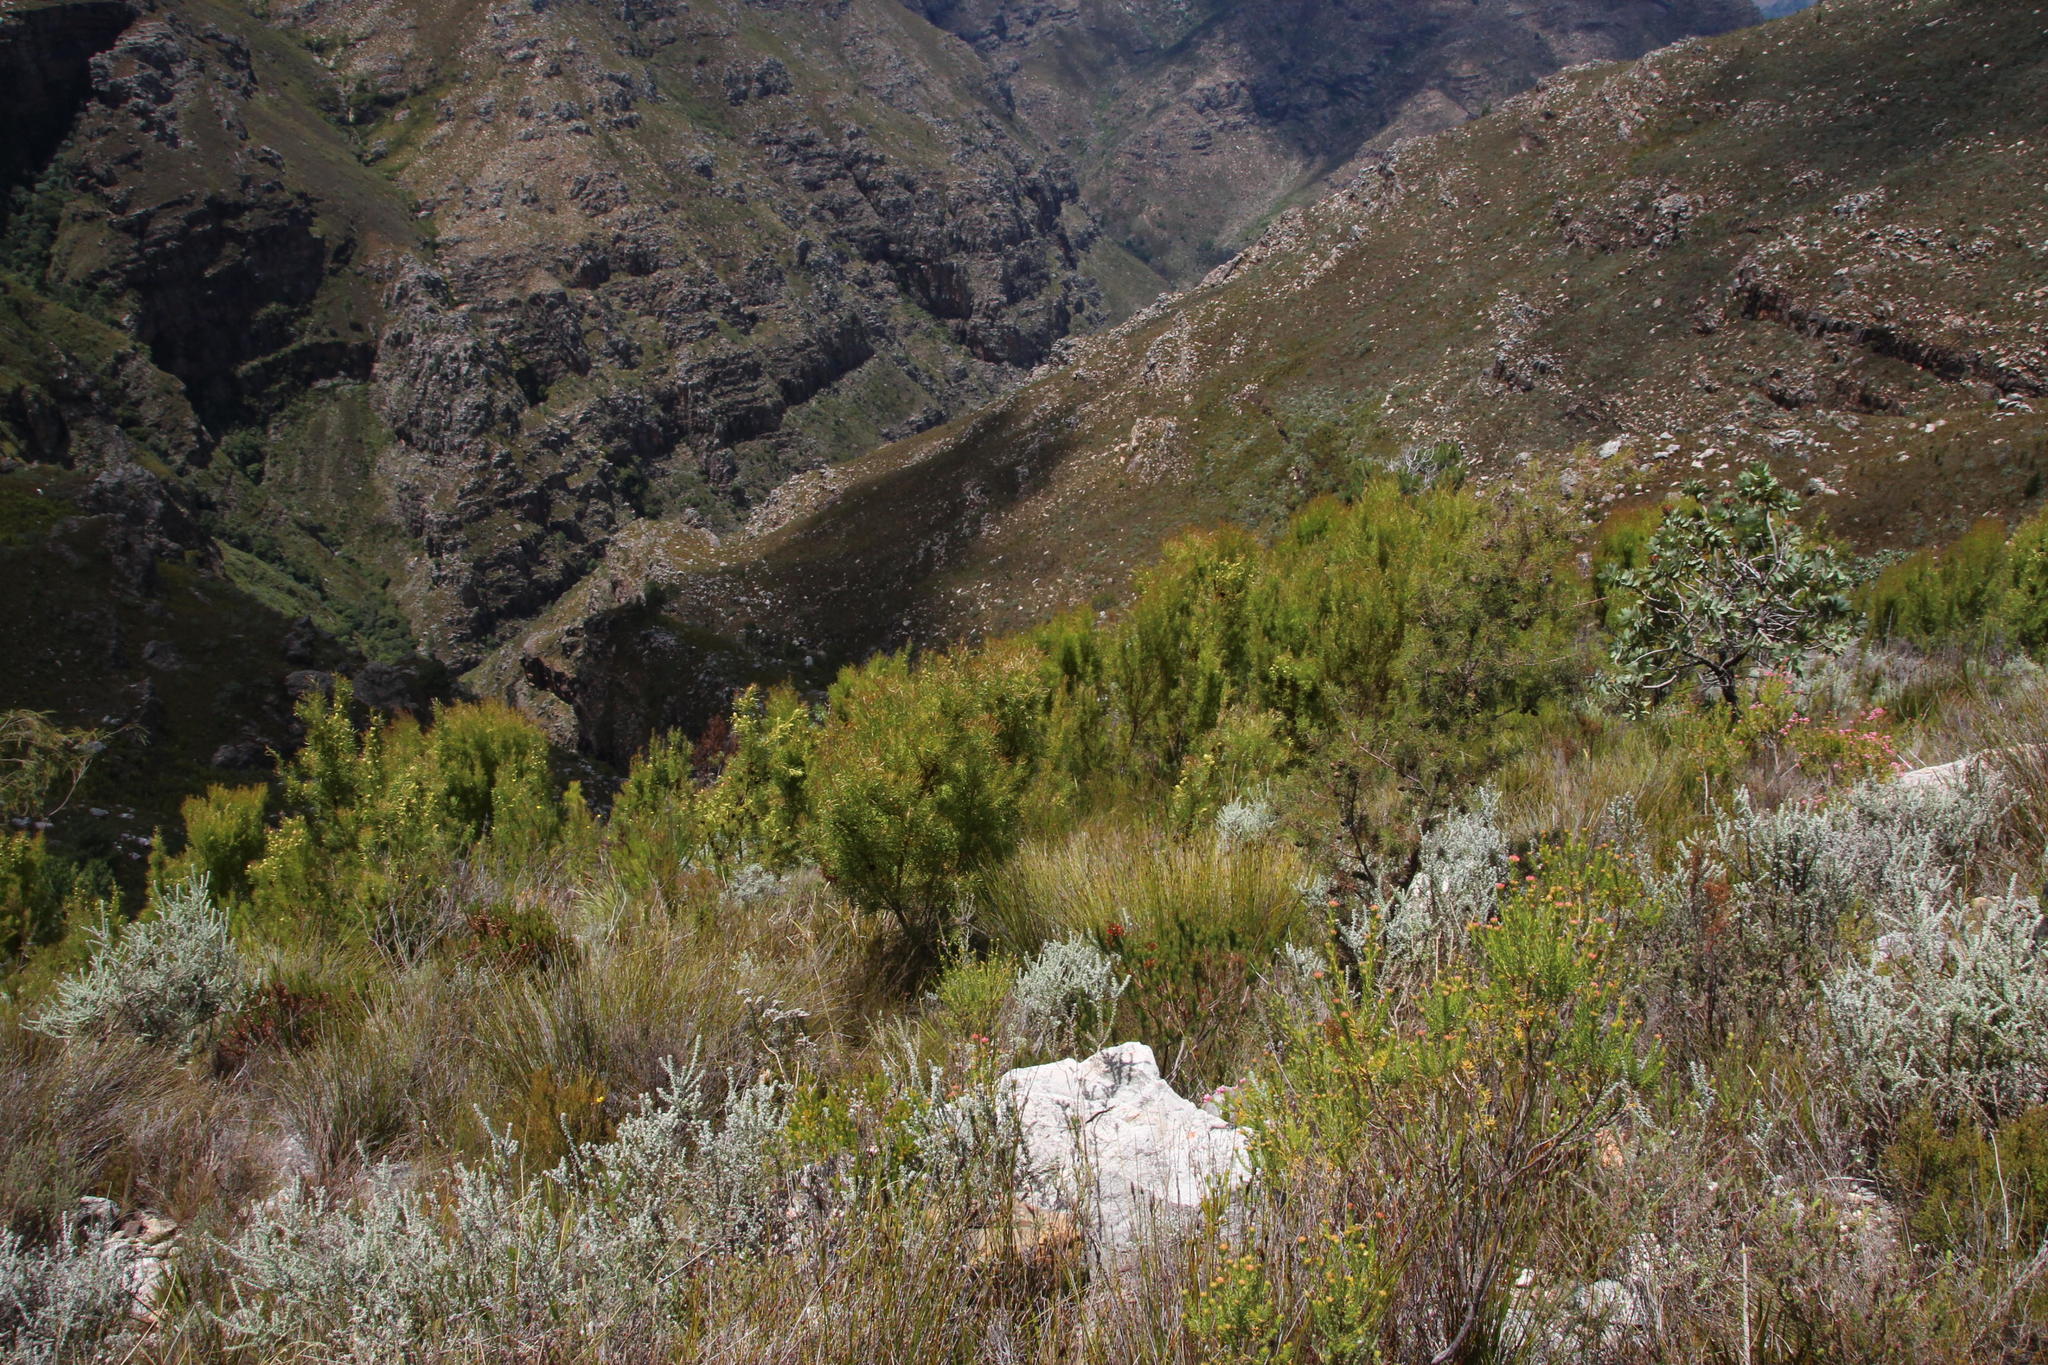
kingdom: Plantae
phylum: Tracheophyta
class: Magnoliopsida
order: Proteales
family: Proteaceae
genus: Leucadendron
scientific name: Leucadendron salicifolium
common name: Common stream conebush
